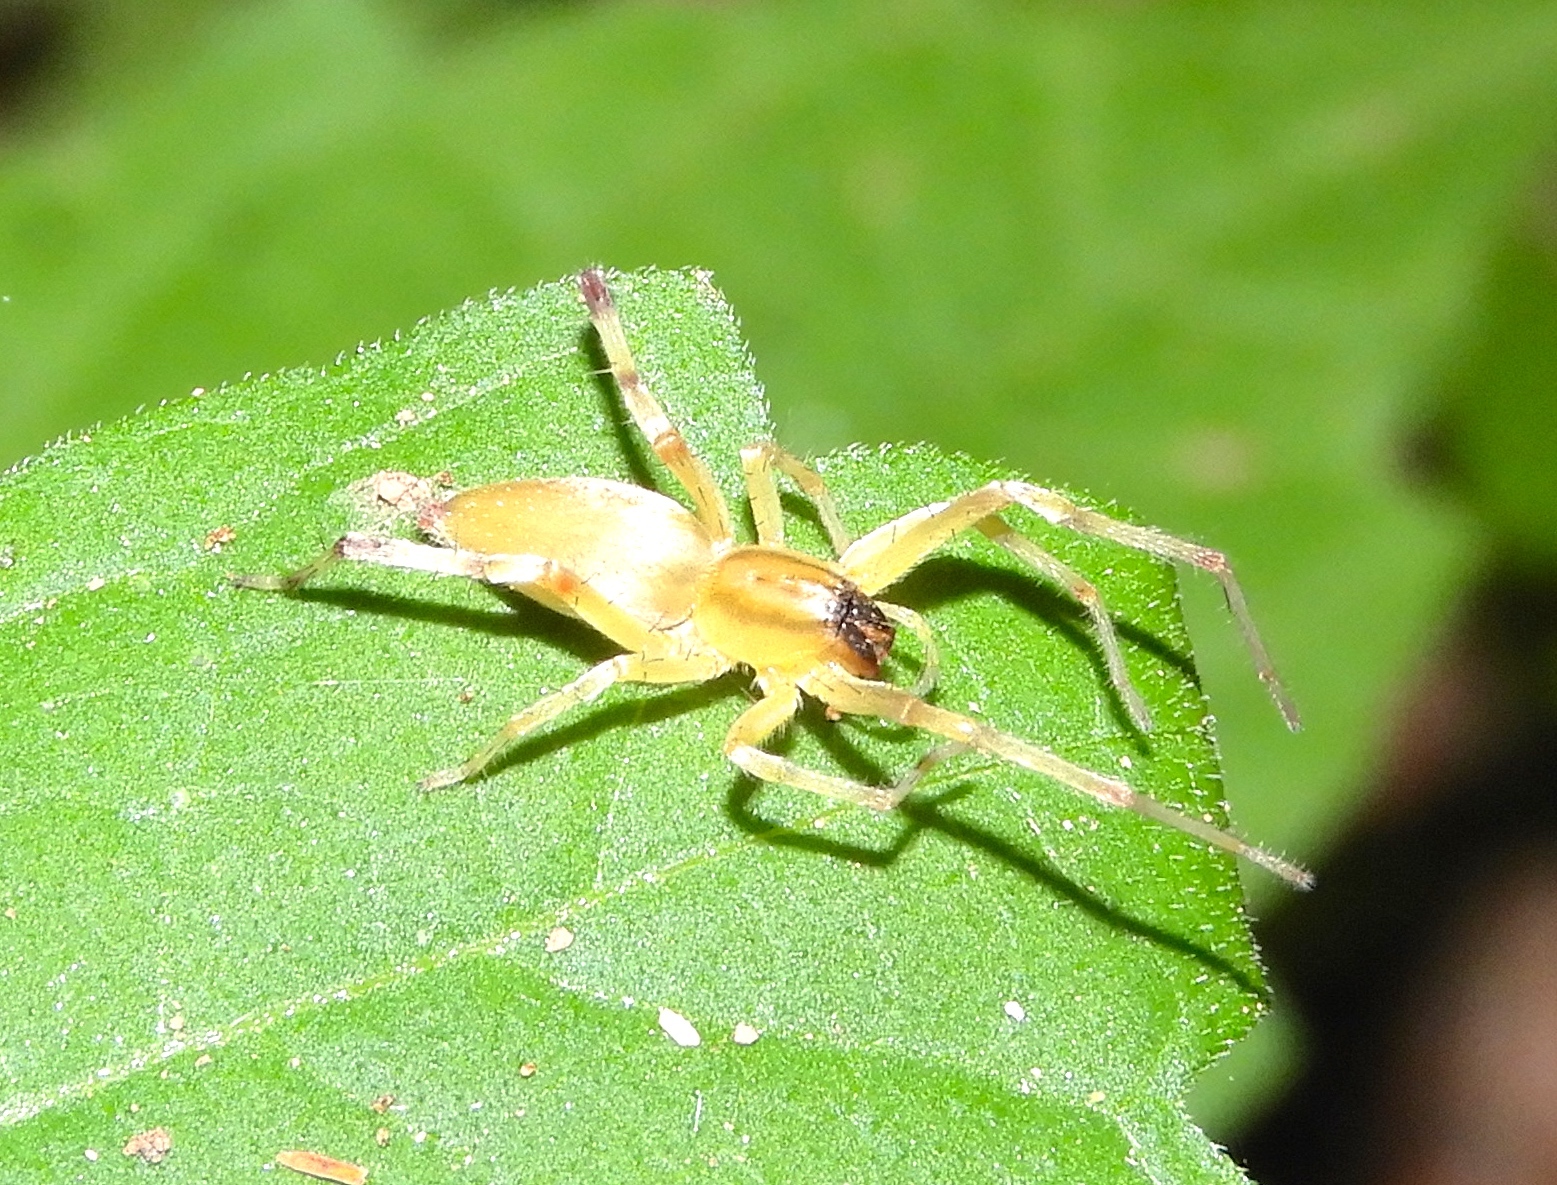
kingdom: Animalia
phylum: Arthropoda
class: Arachnida
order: Araneae
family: Anyphaenidae
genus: Hibana
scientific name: Hibana
